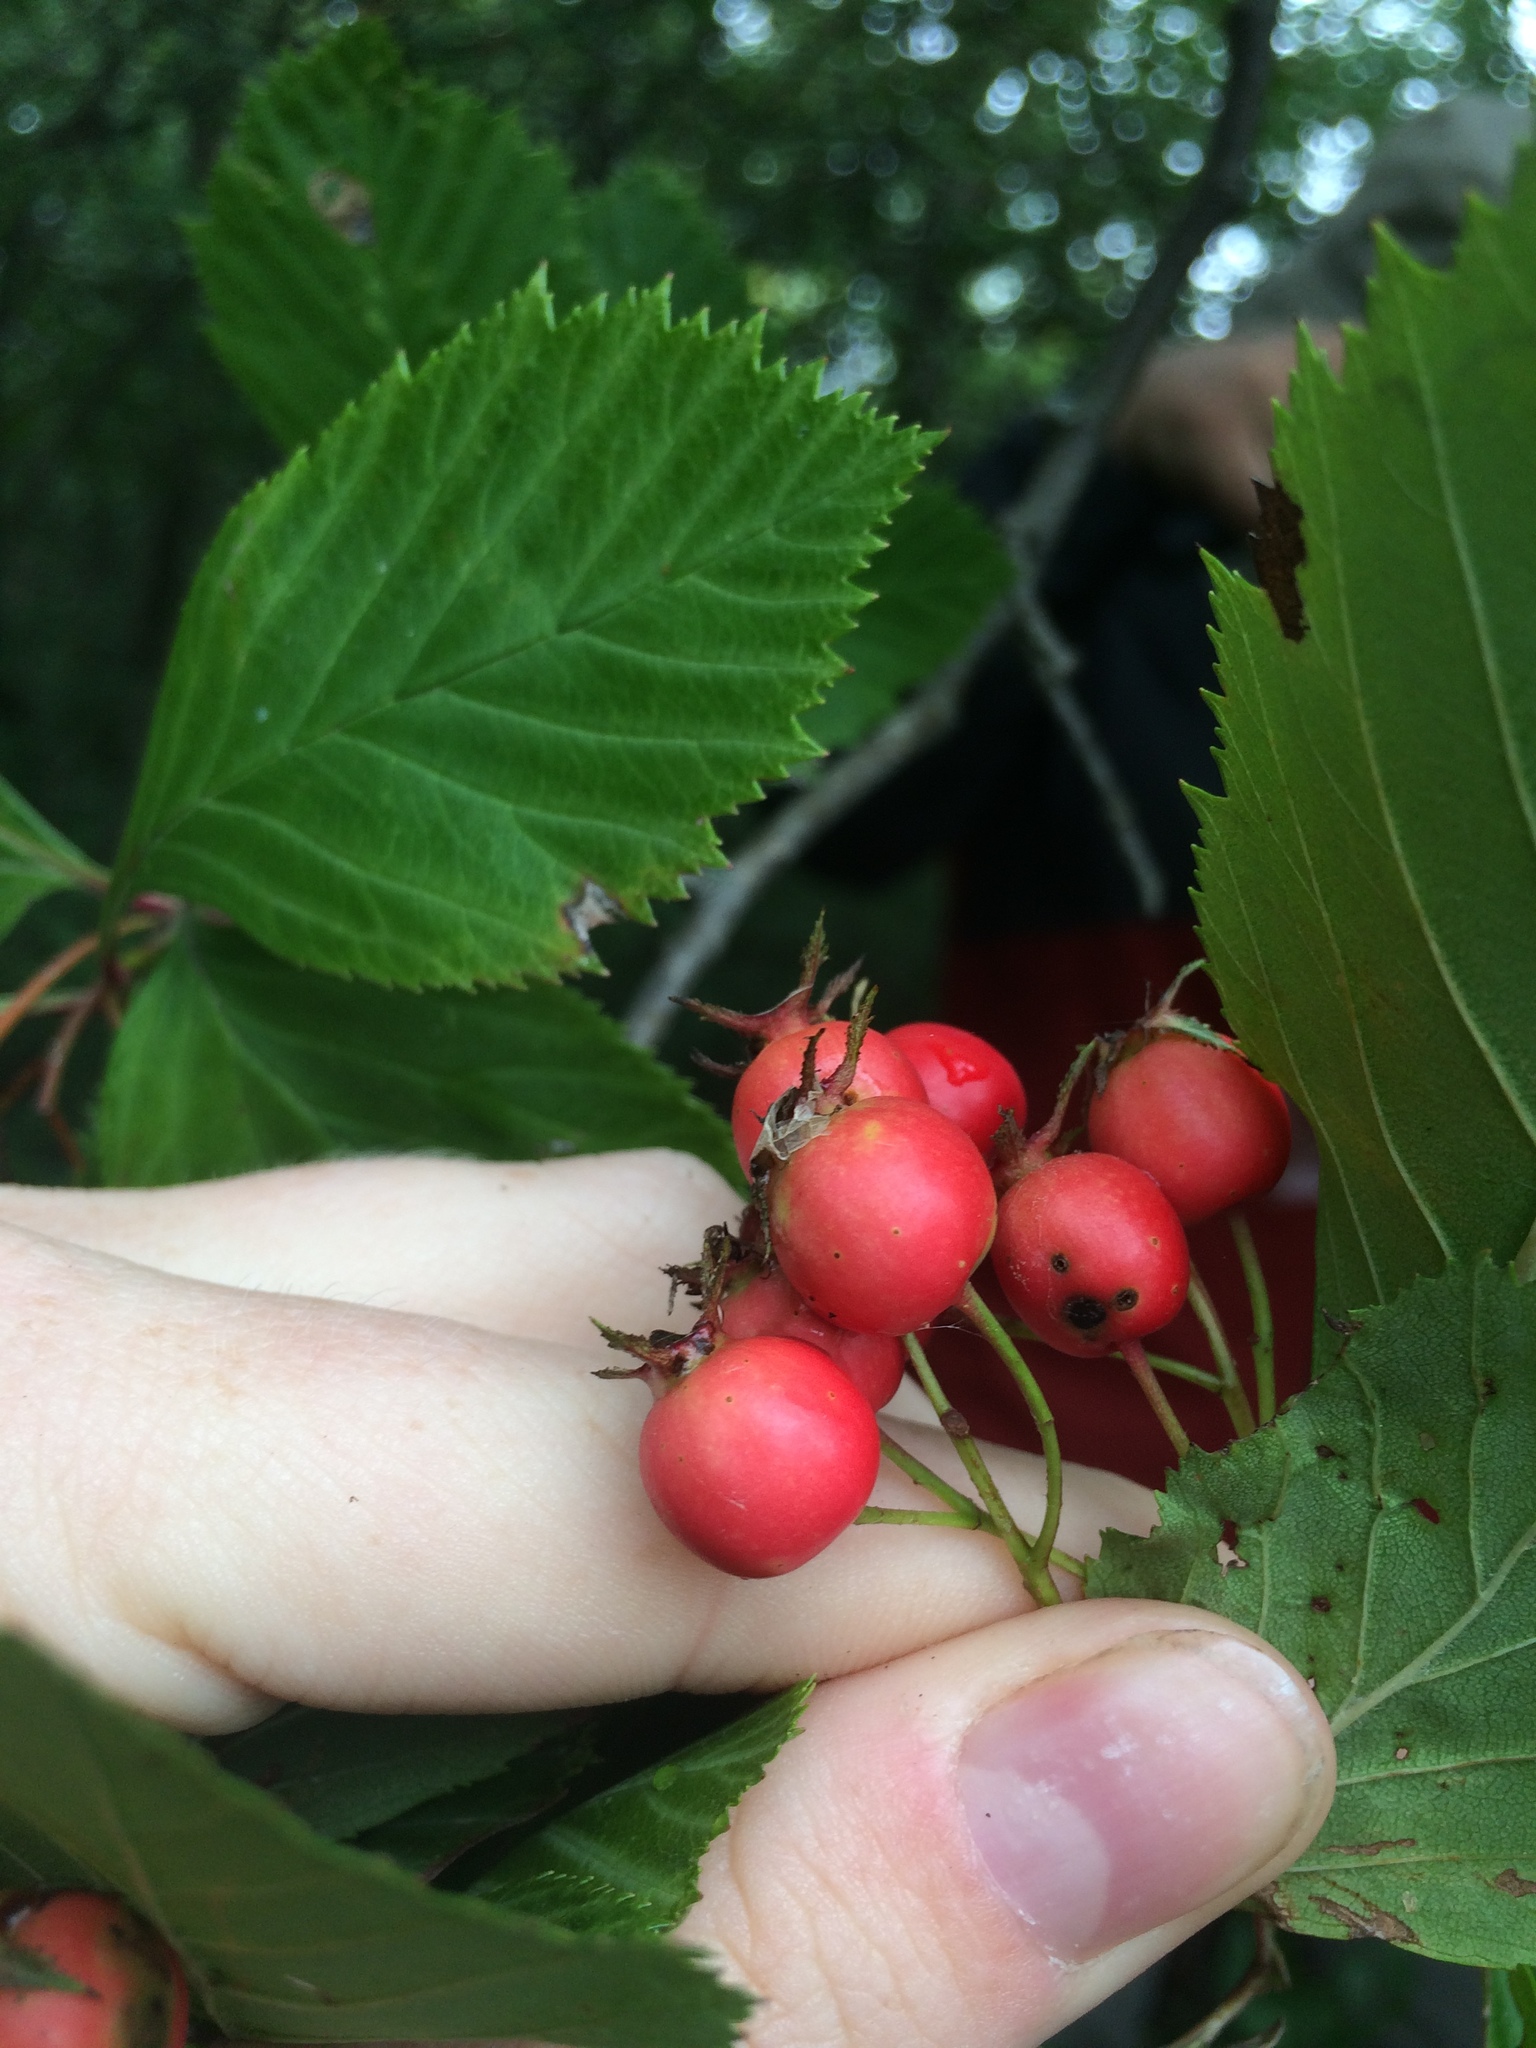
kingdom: Plantae
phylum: Tracheophyta
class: Magnoliopsida
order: Rosales
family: Rosaceae
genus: Crataegus
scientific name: Crataegus macracantha
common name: Large-thorn hawthorn
